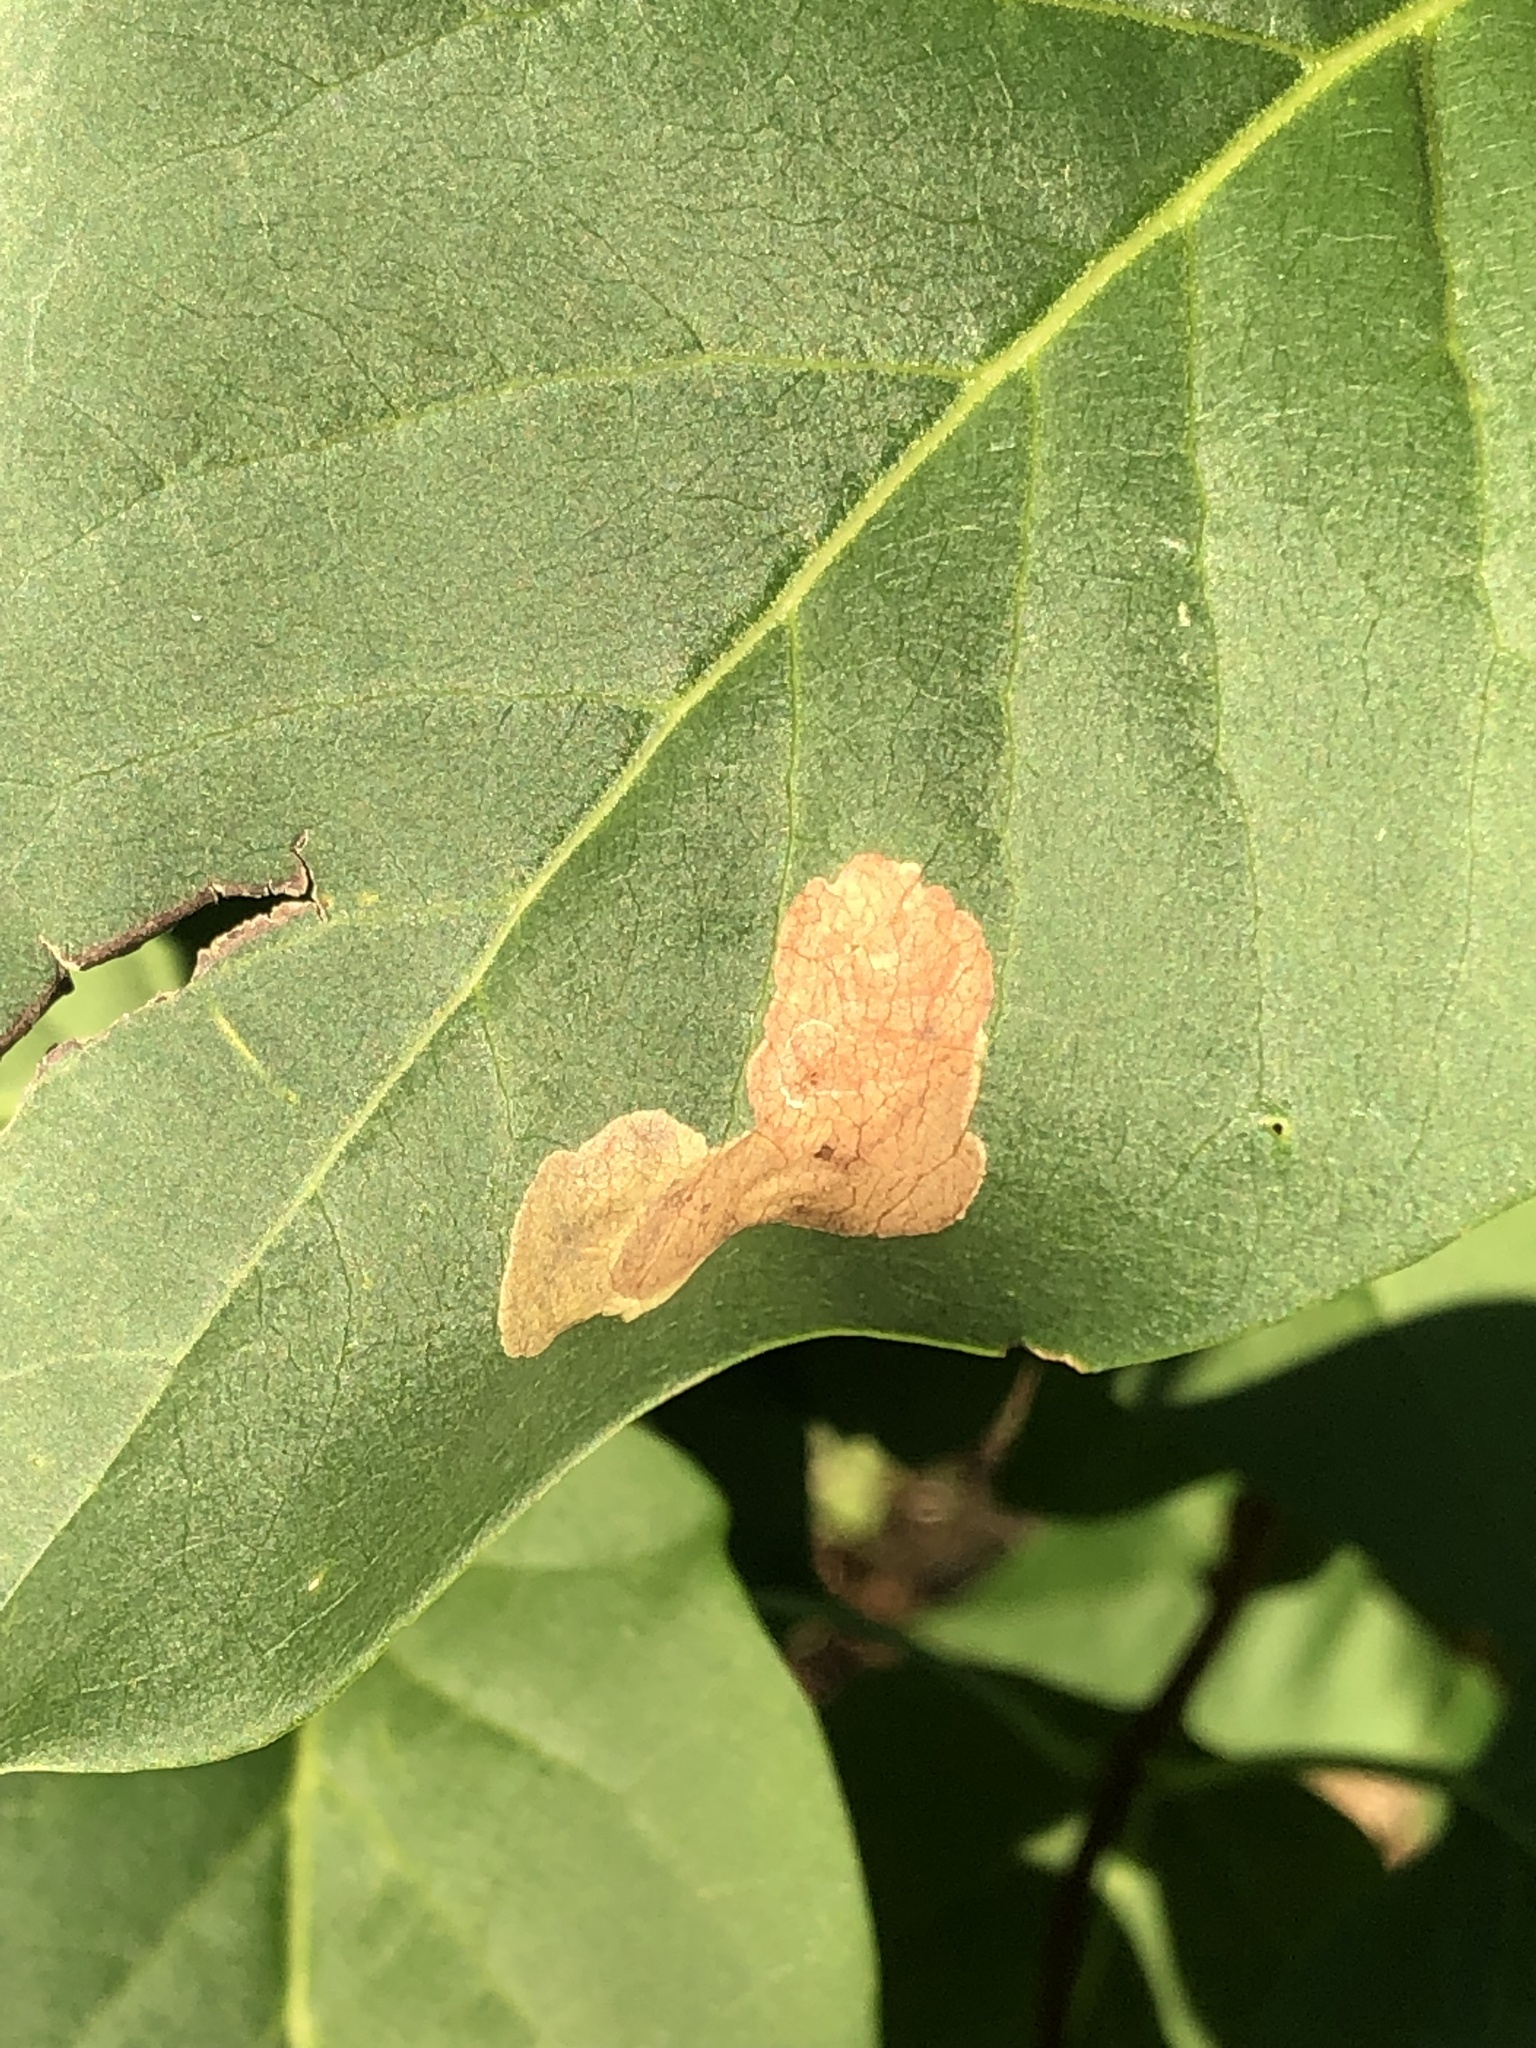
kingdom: Animalia
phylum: Arthropoda
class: Insecta
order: Lepidoptera
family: Gracillariidae
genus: Gracillaria
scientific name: Gracillaria syringella
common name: Common slender
